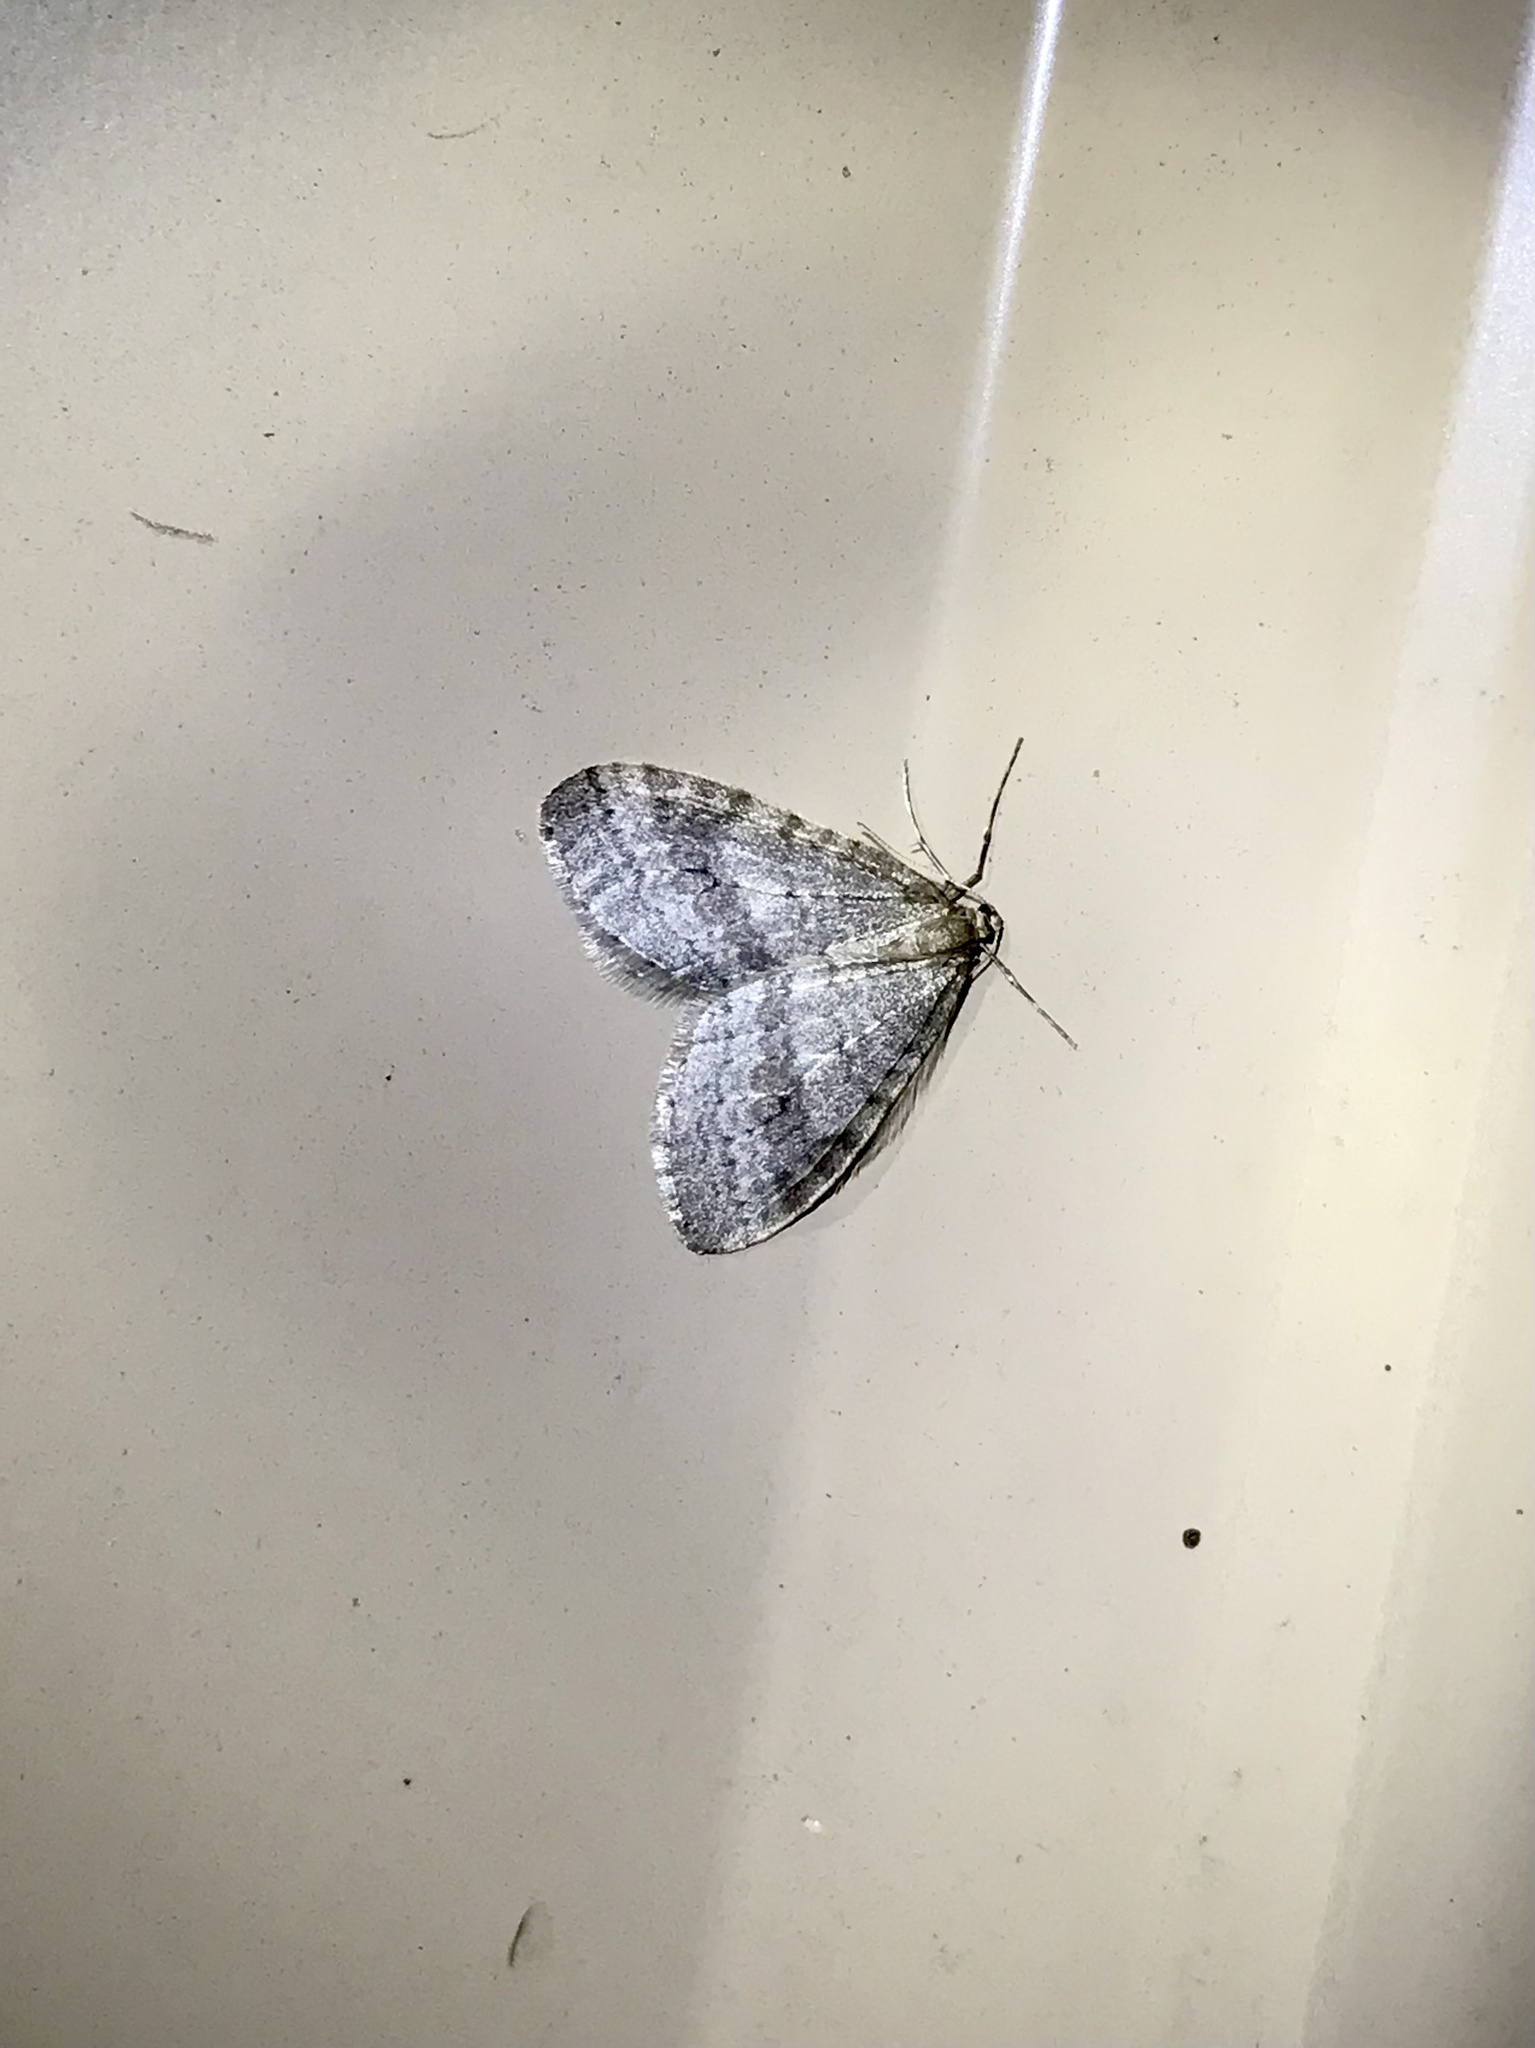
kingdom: Animalia
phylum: Arthropoda
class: Insecta
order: Lepidoptera
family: Geometridae
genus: Operophtera
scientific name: Operophtera bruceata
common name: Bruce spanworm
